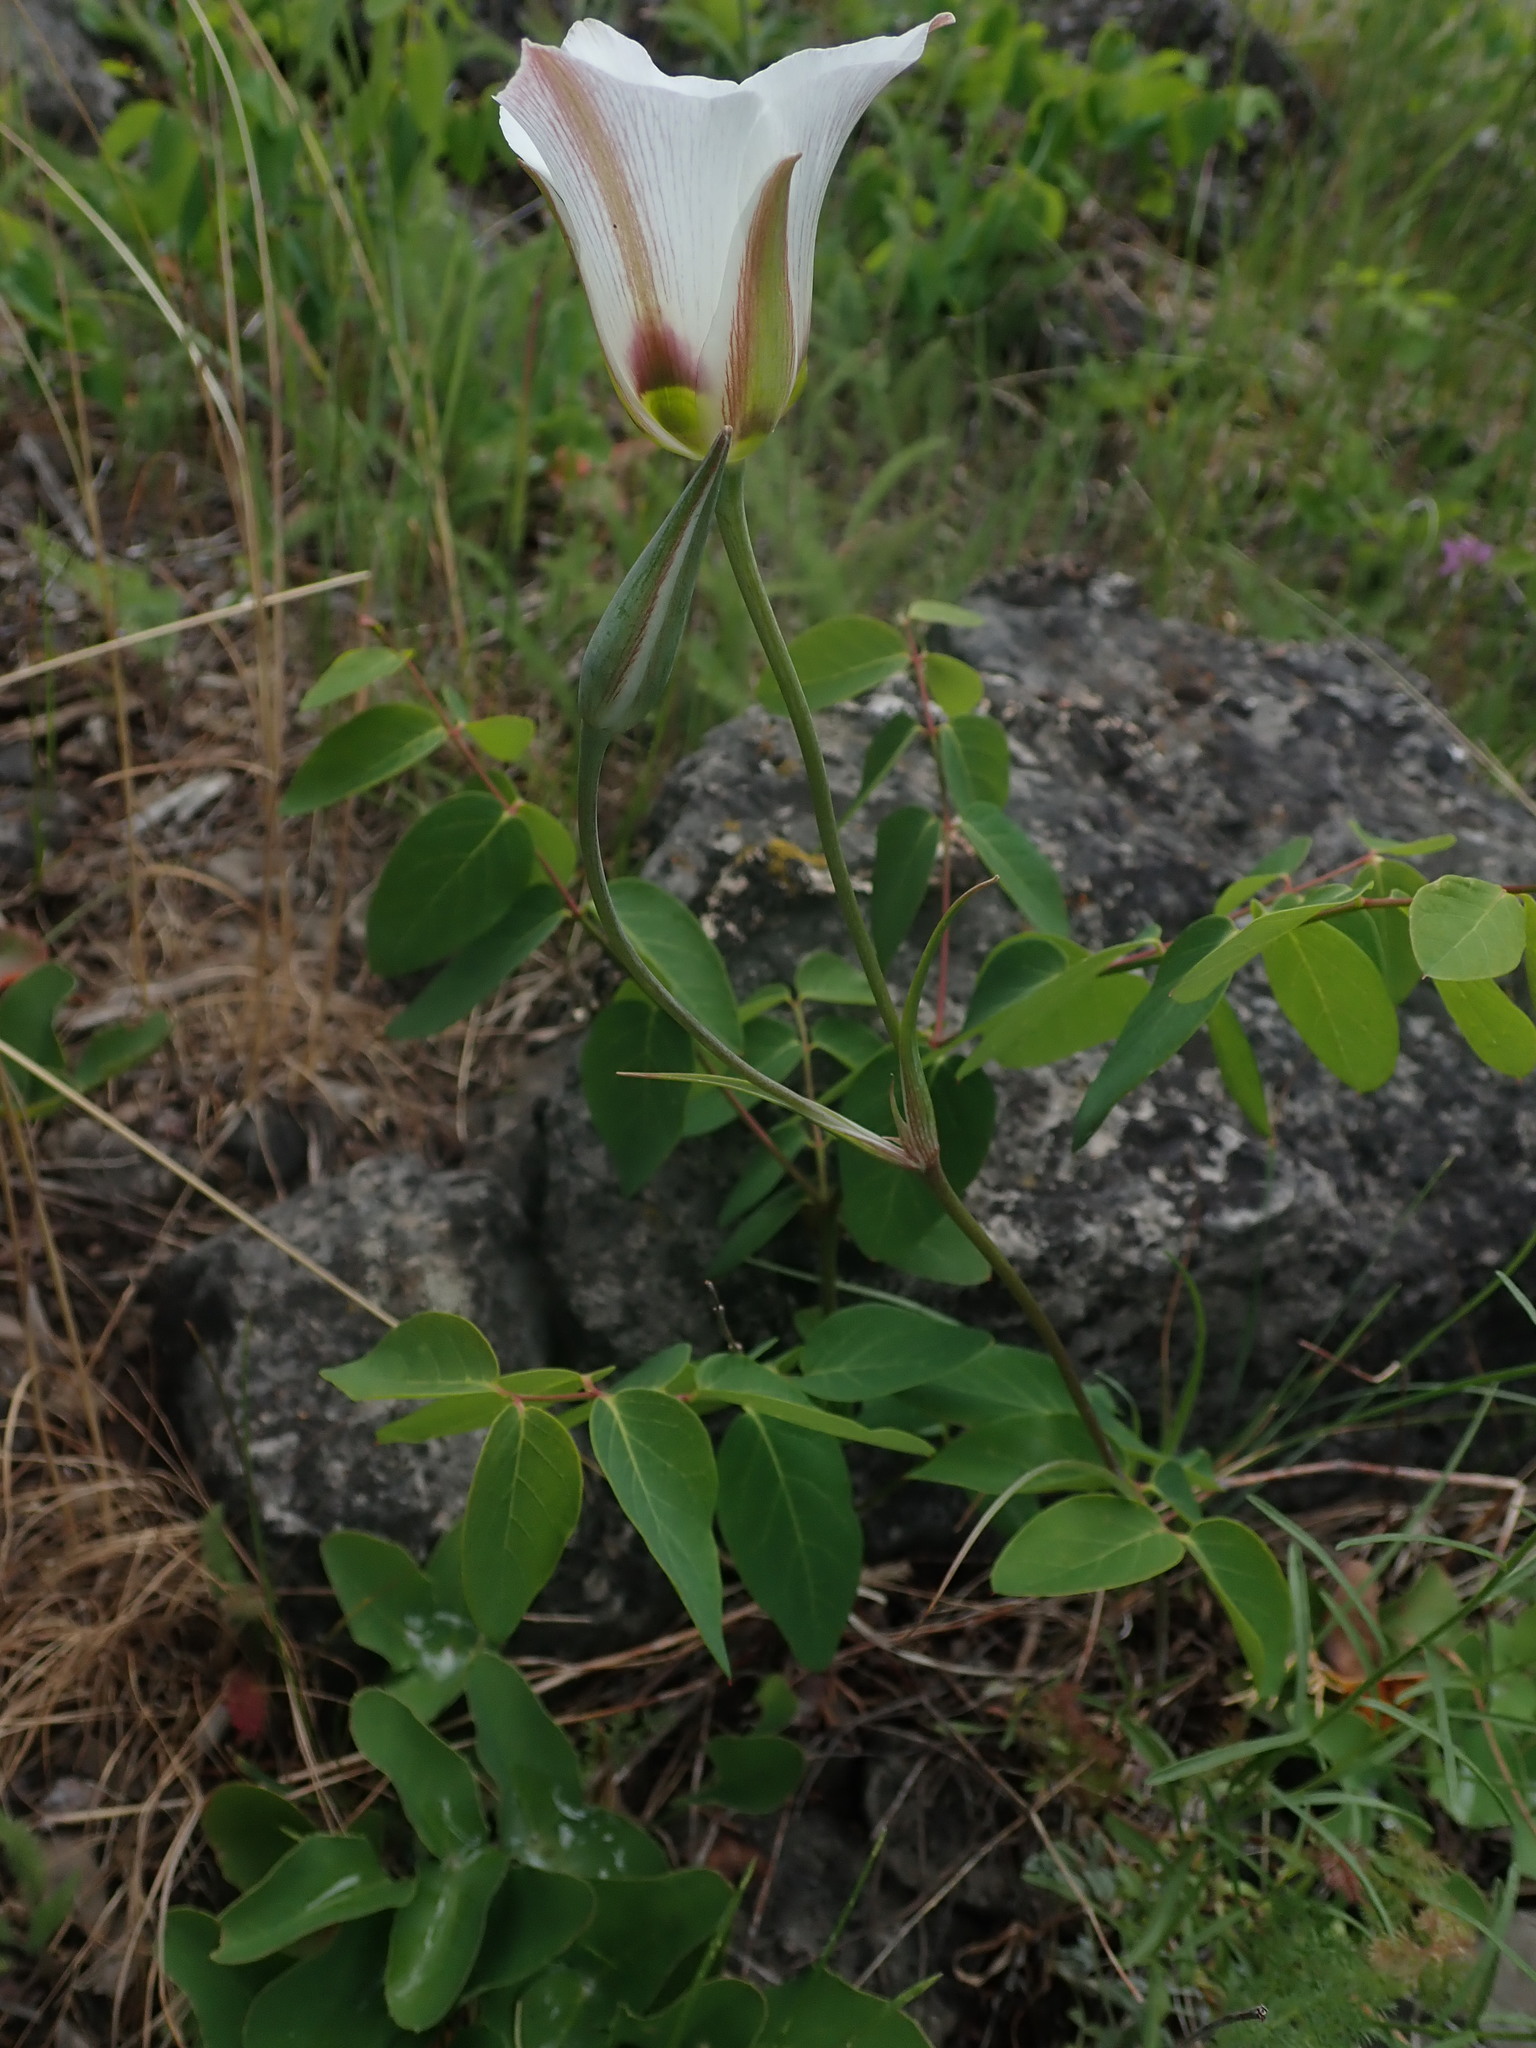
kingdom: Plantae
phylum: Tracheophyta
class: Liliopsida
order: Liliales
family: Liliaceae
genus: Calochortus
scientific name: Calochortus nuttallii
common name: Sego-lily
